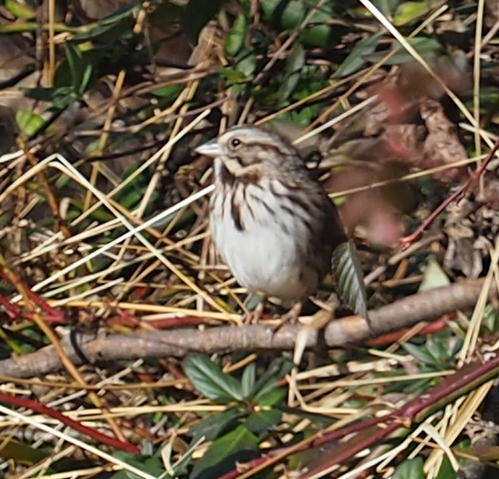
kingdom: Animalia
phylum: Chordata
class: Aves
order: Passeriformes
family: Passerellidae
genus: Melospiza
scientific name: Melospiza melodia
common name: Song sparrow
